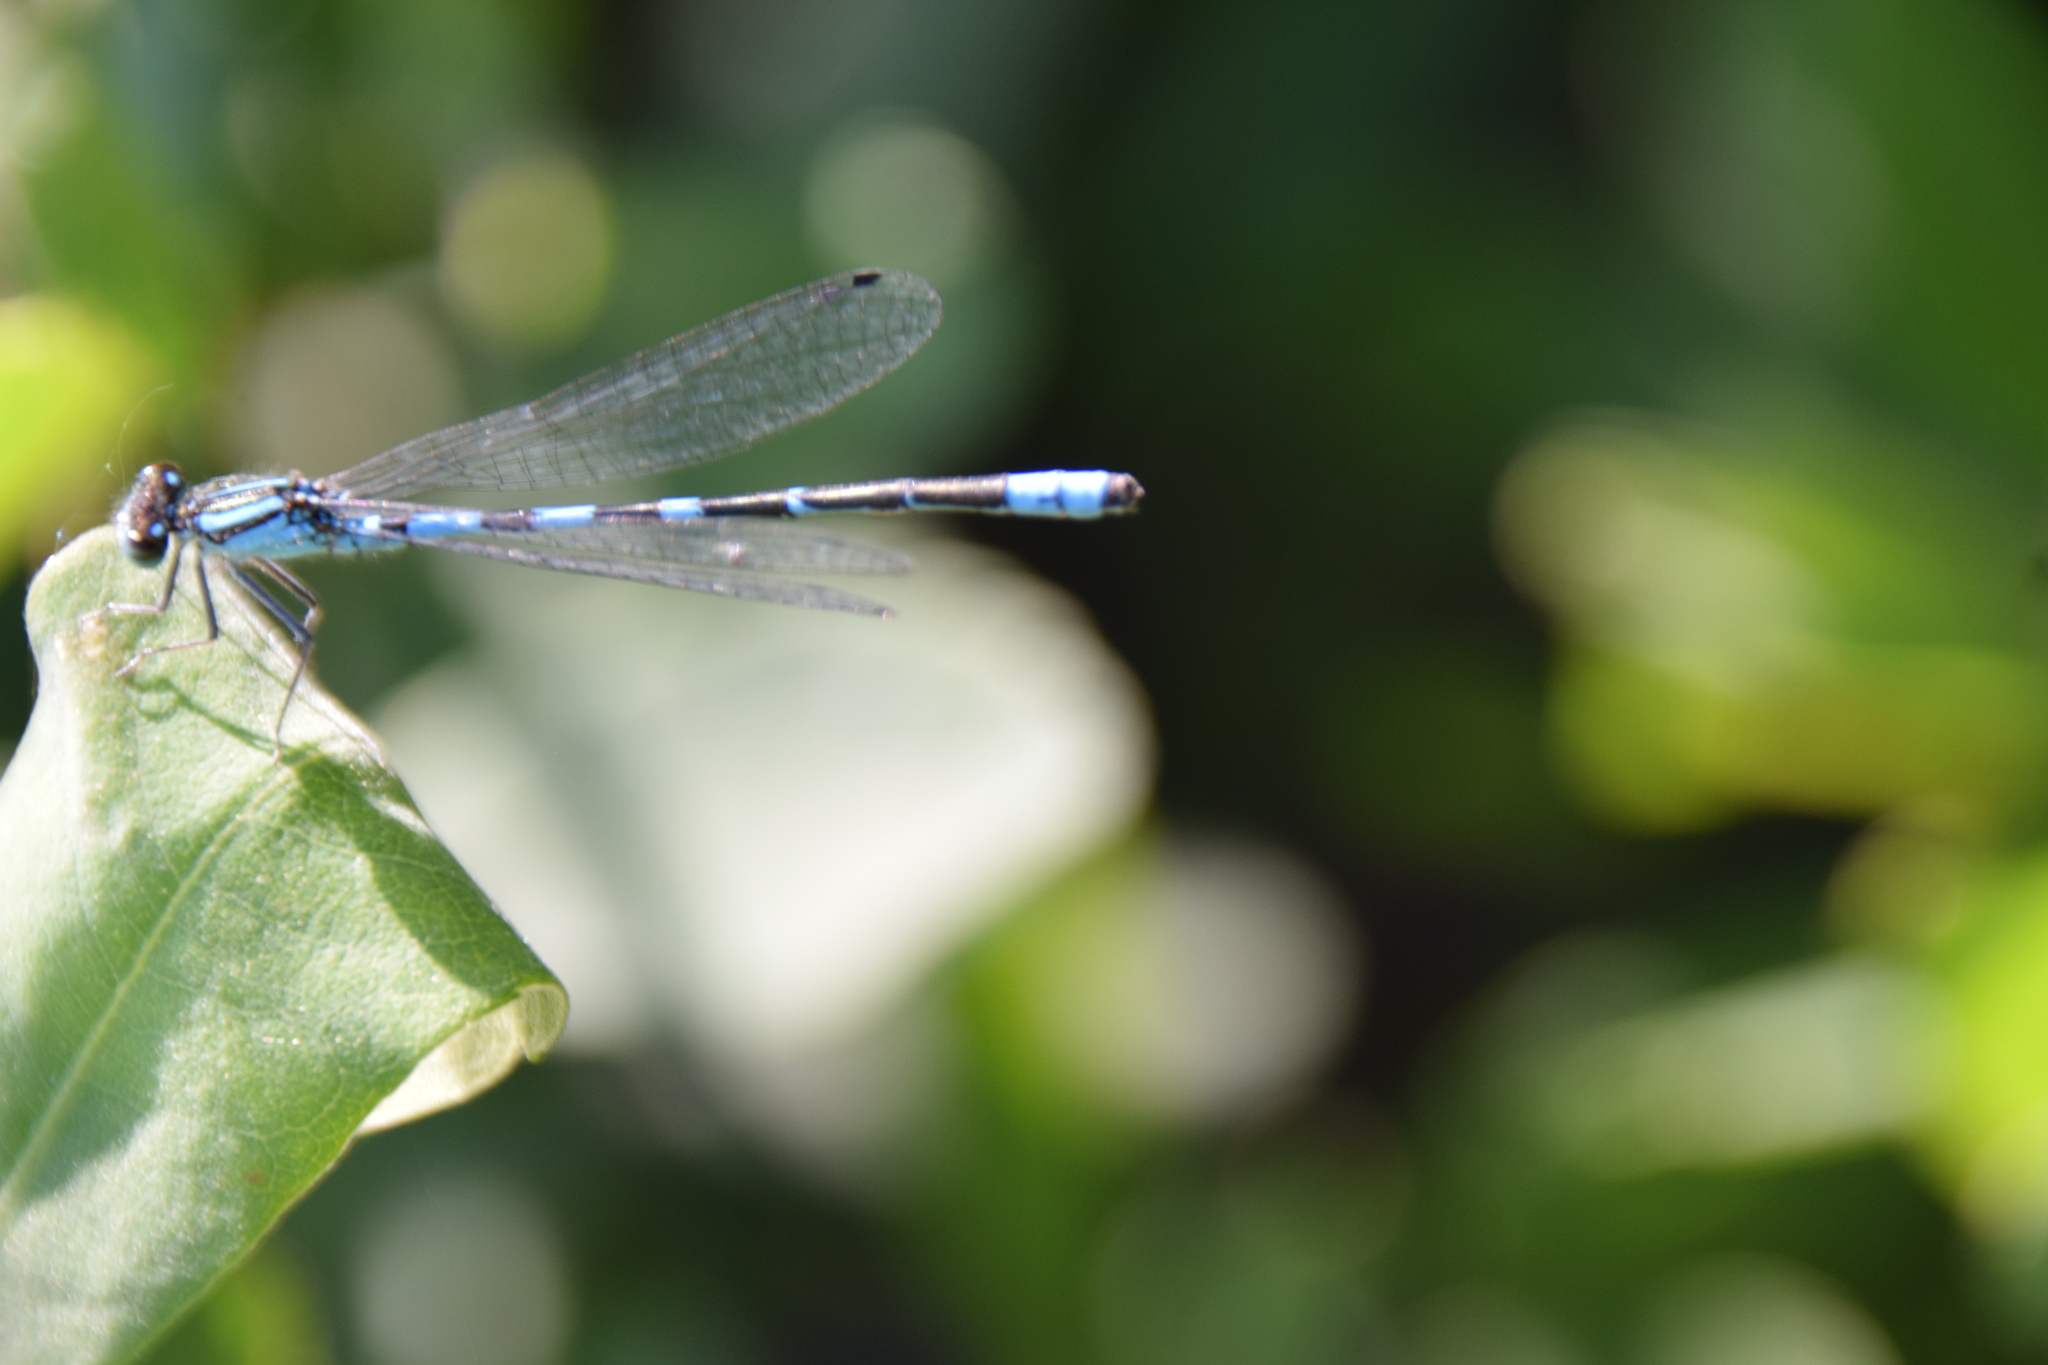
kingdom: Animalia
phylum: Arthropoda
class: Insecta
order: Odonata
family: Coenagrionidae
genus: Enallagma
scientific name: Enallagma carunculatum
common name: Tule bluet
